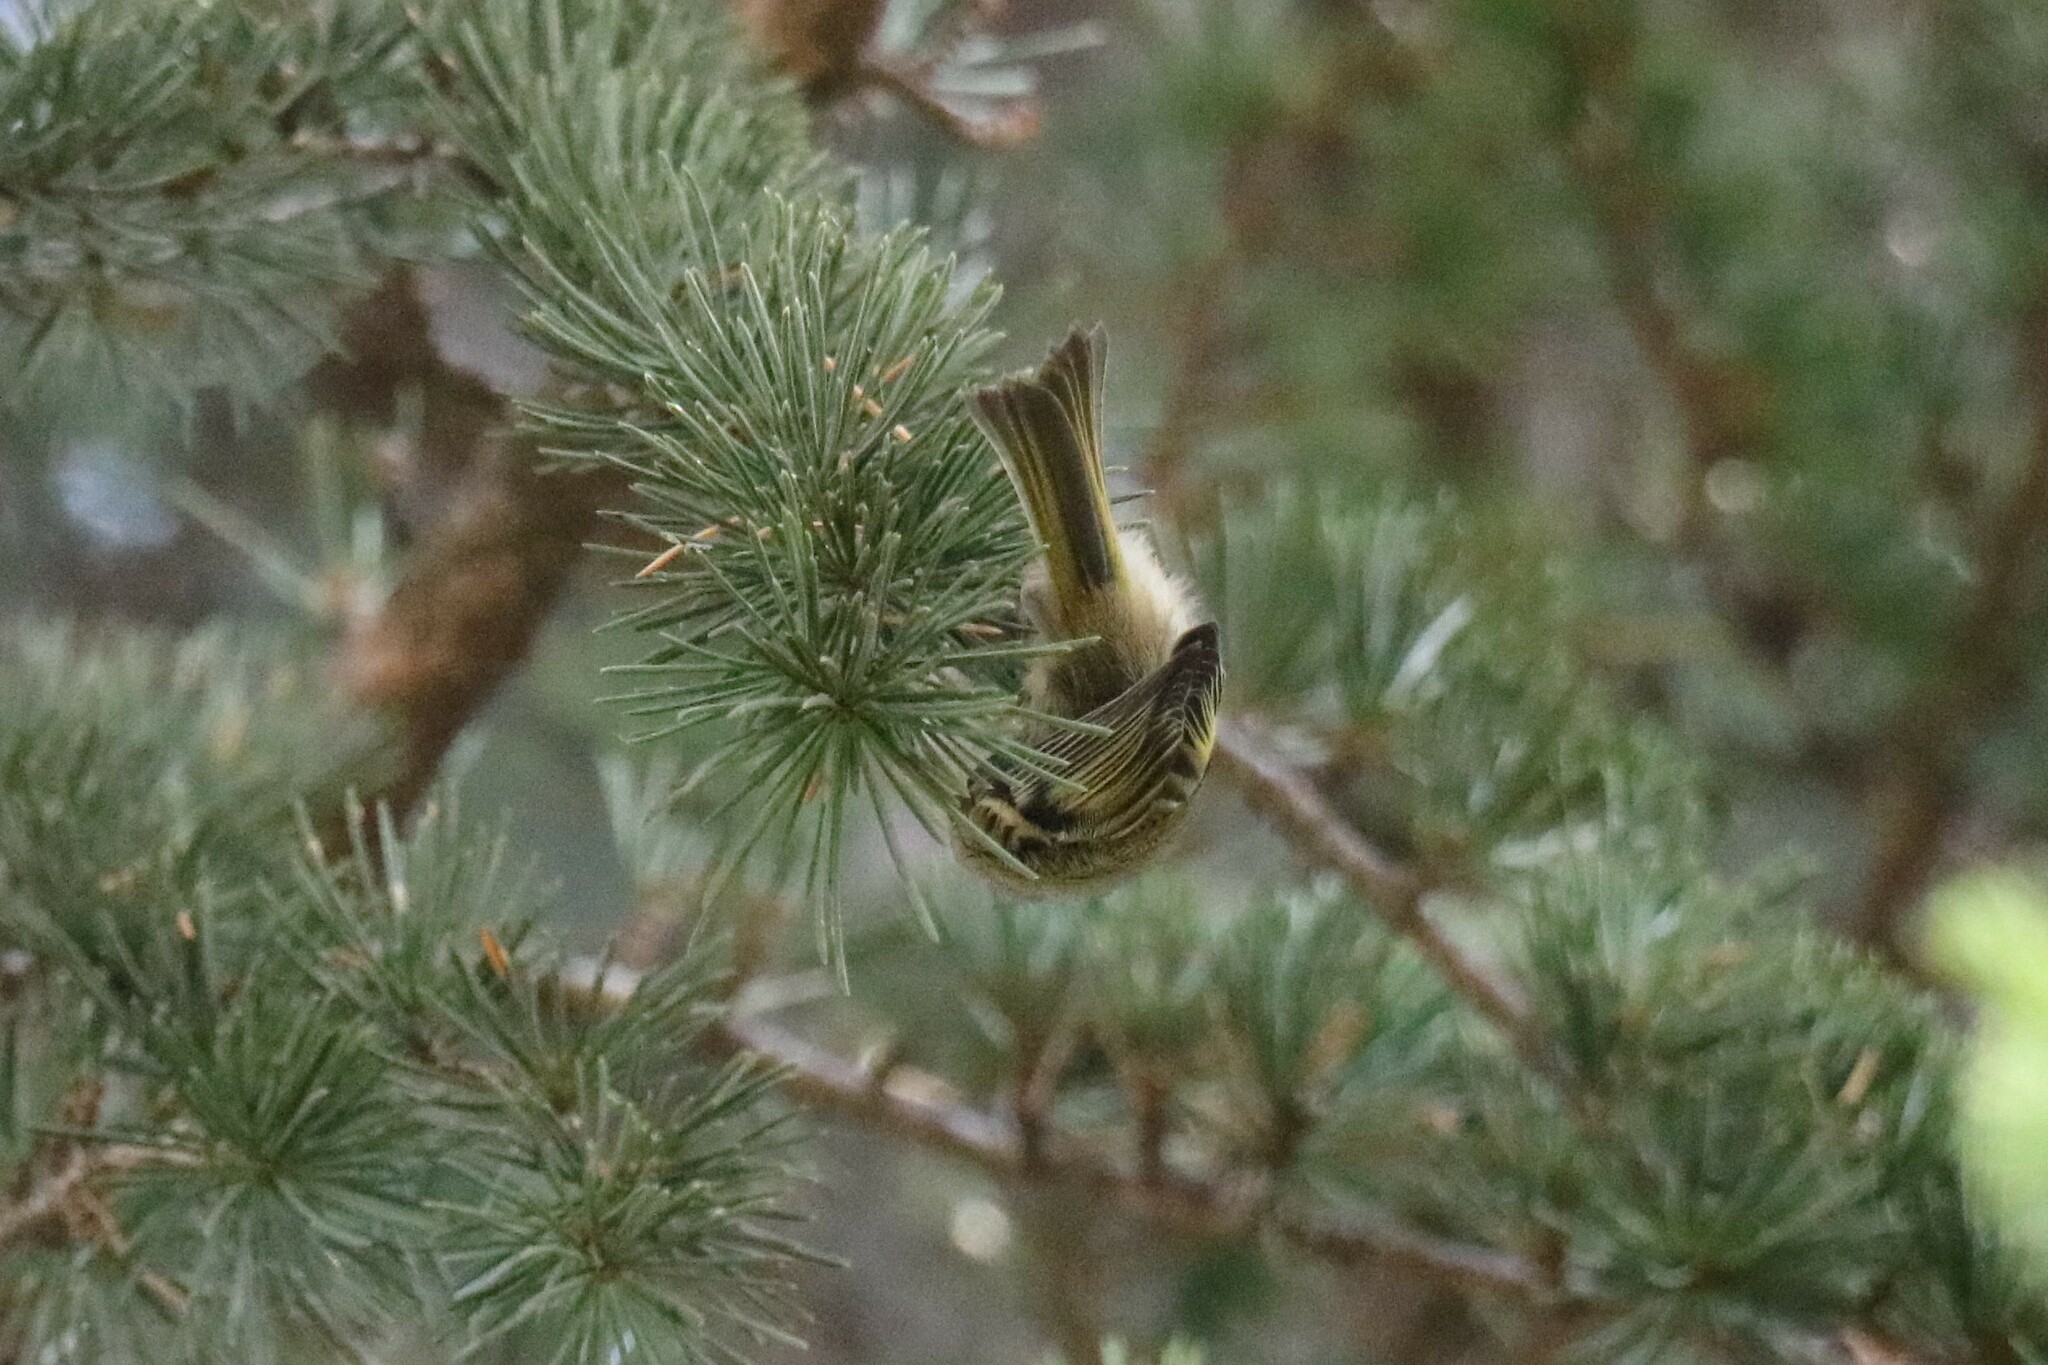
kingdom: Animalia
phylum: Chordata
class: Aves
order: Passeriformes
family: Regulidae
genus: Regulus
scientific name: Regulus ignicapilla
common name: Firecrest
